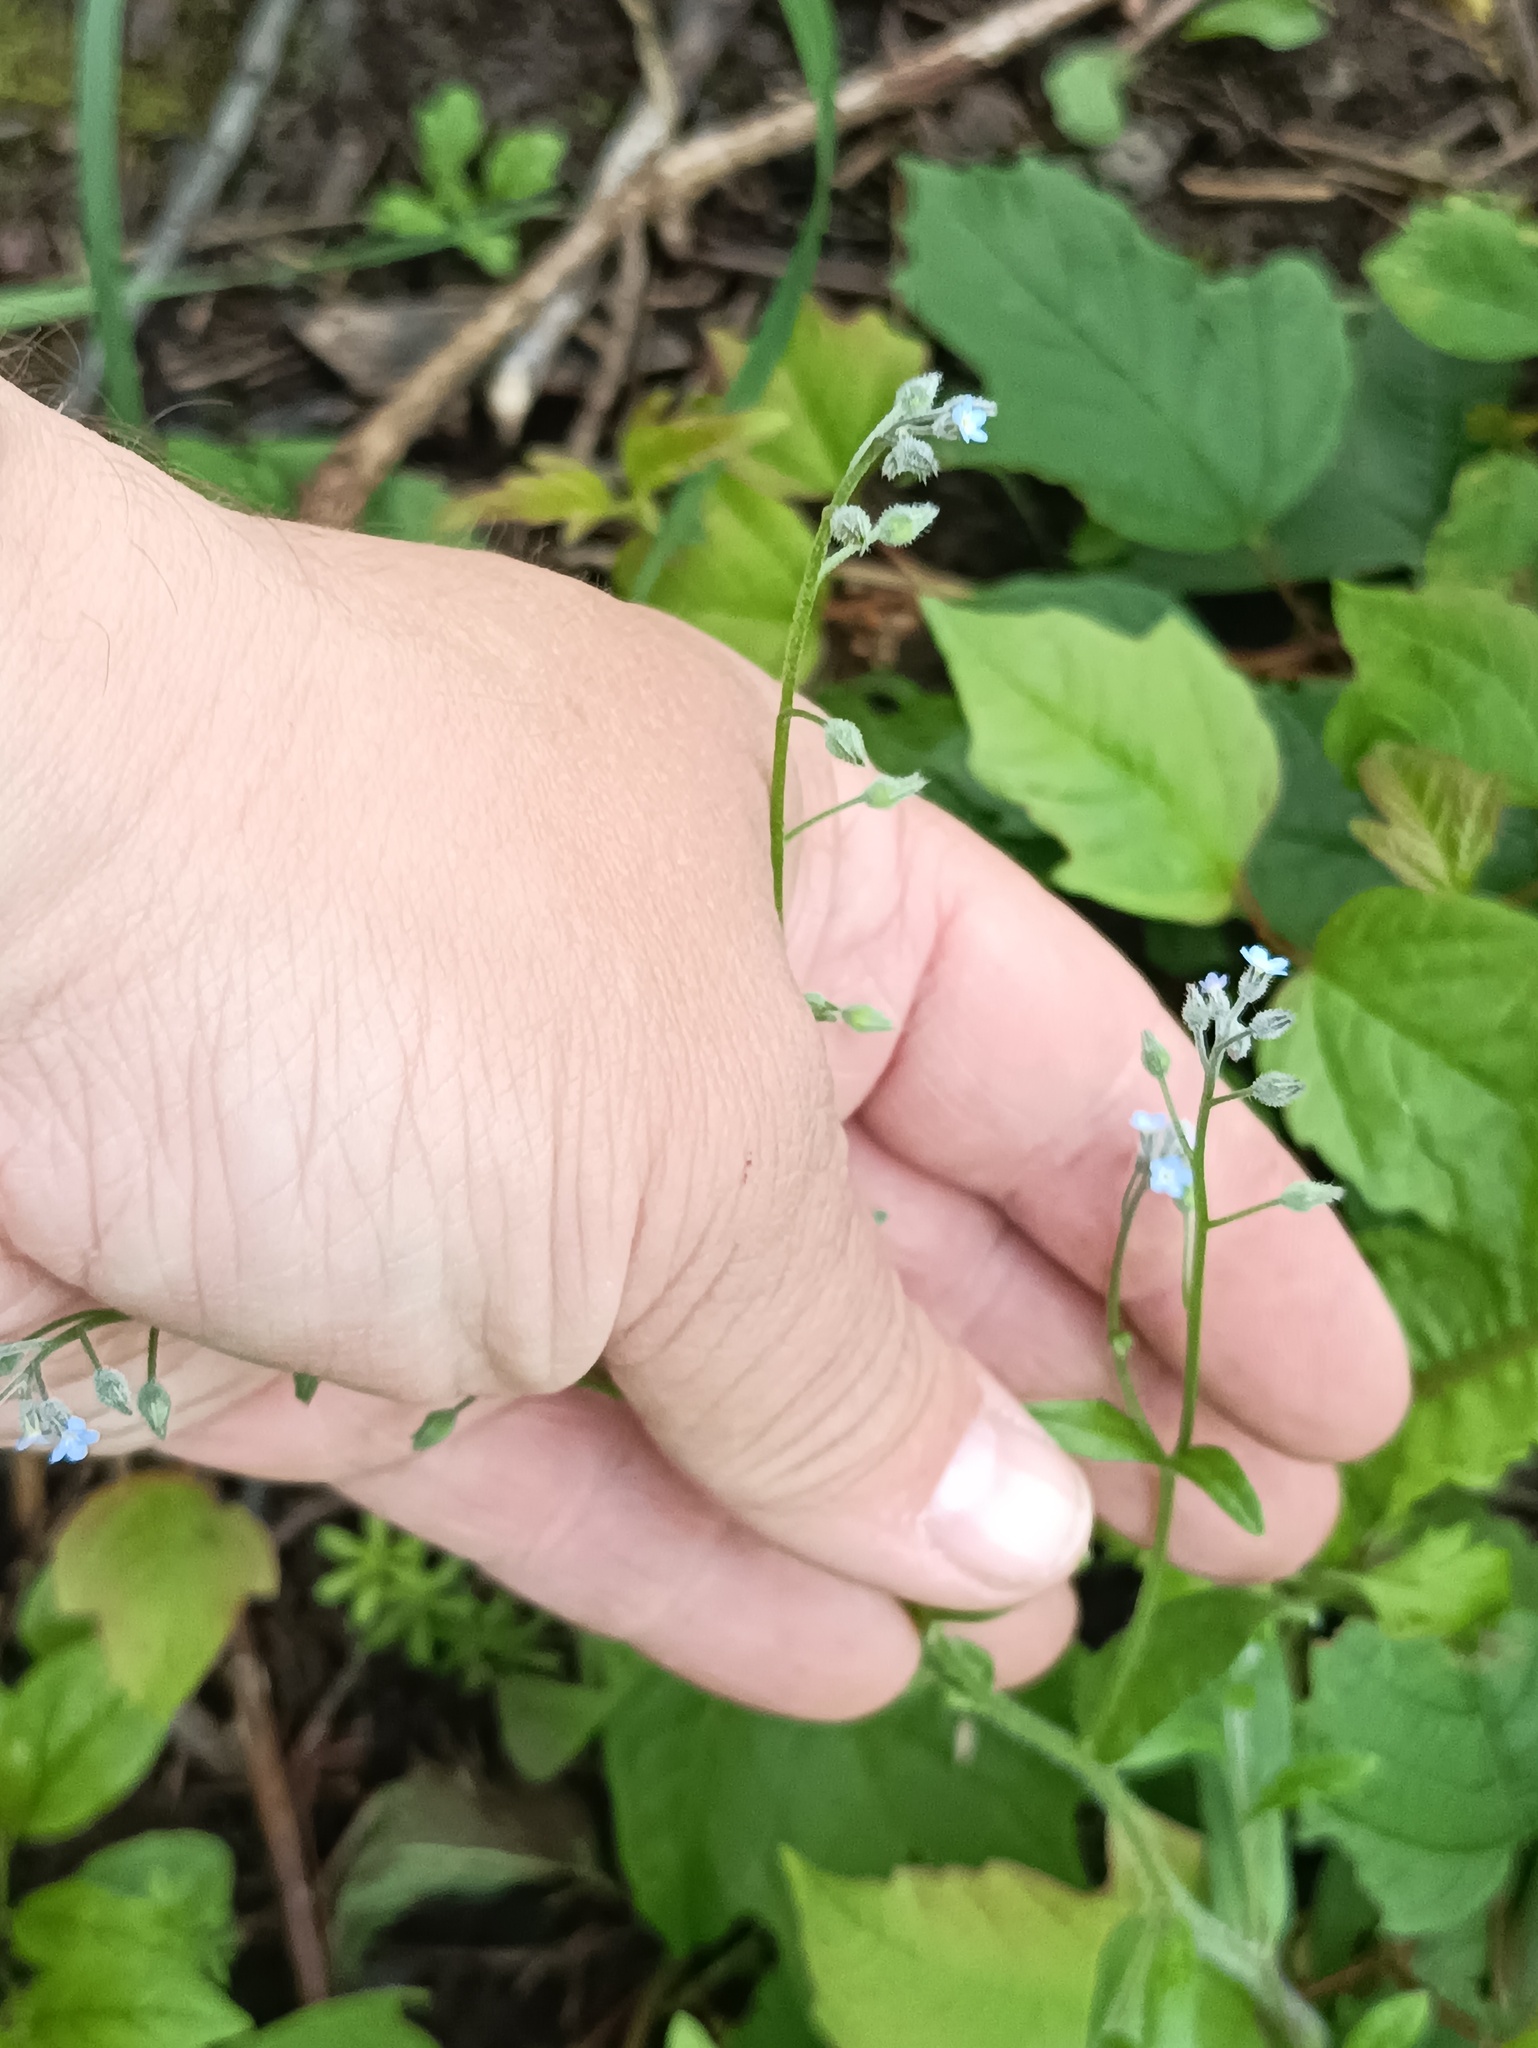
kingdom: Plantae
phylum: Tracheophyta
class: Magnoliopsida
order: Boraginales
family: Boraginaceae
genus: Myosotis
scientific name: Myosotis arvensis
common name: Field forget-me-not
